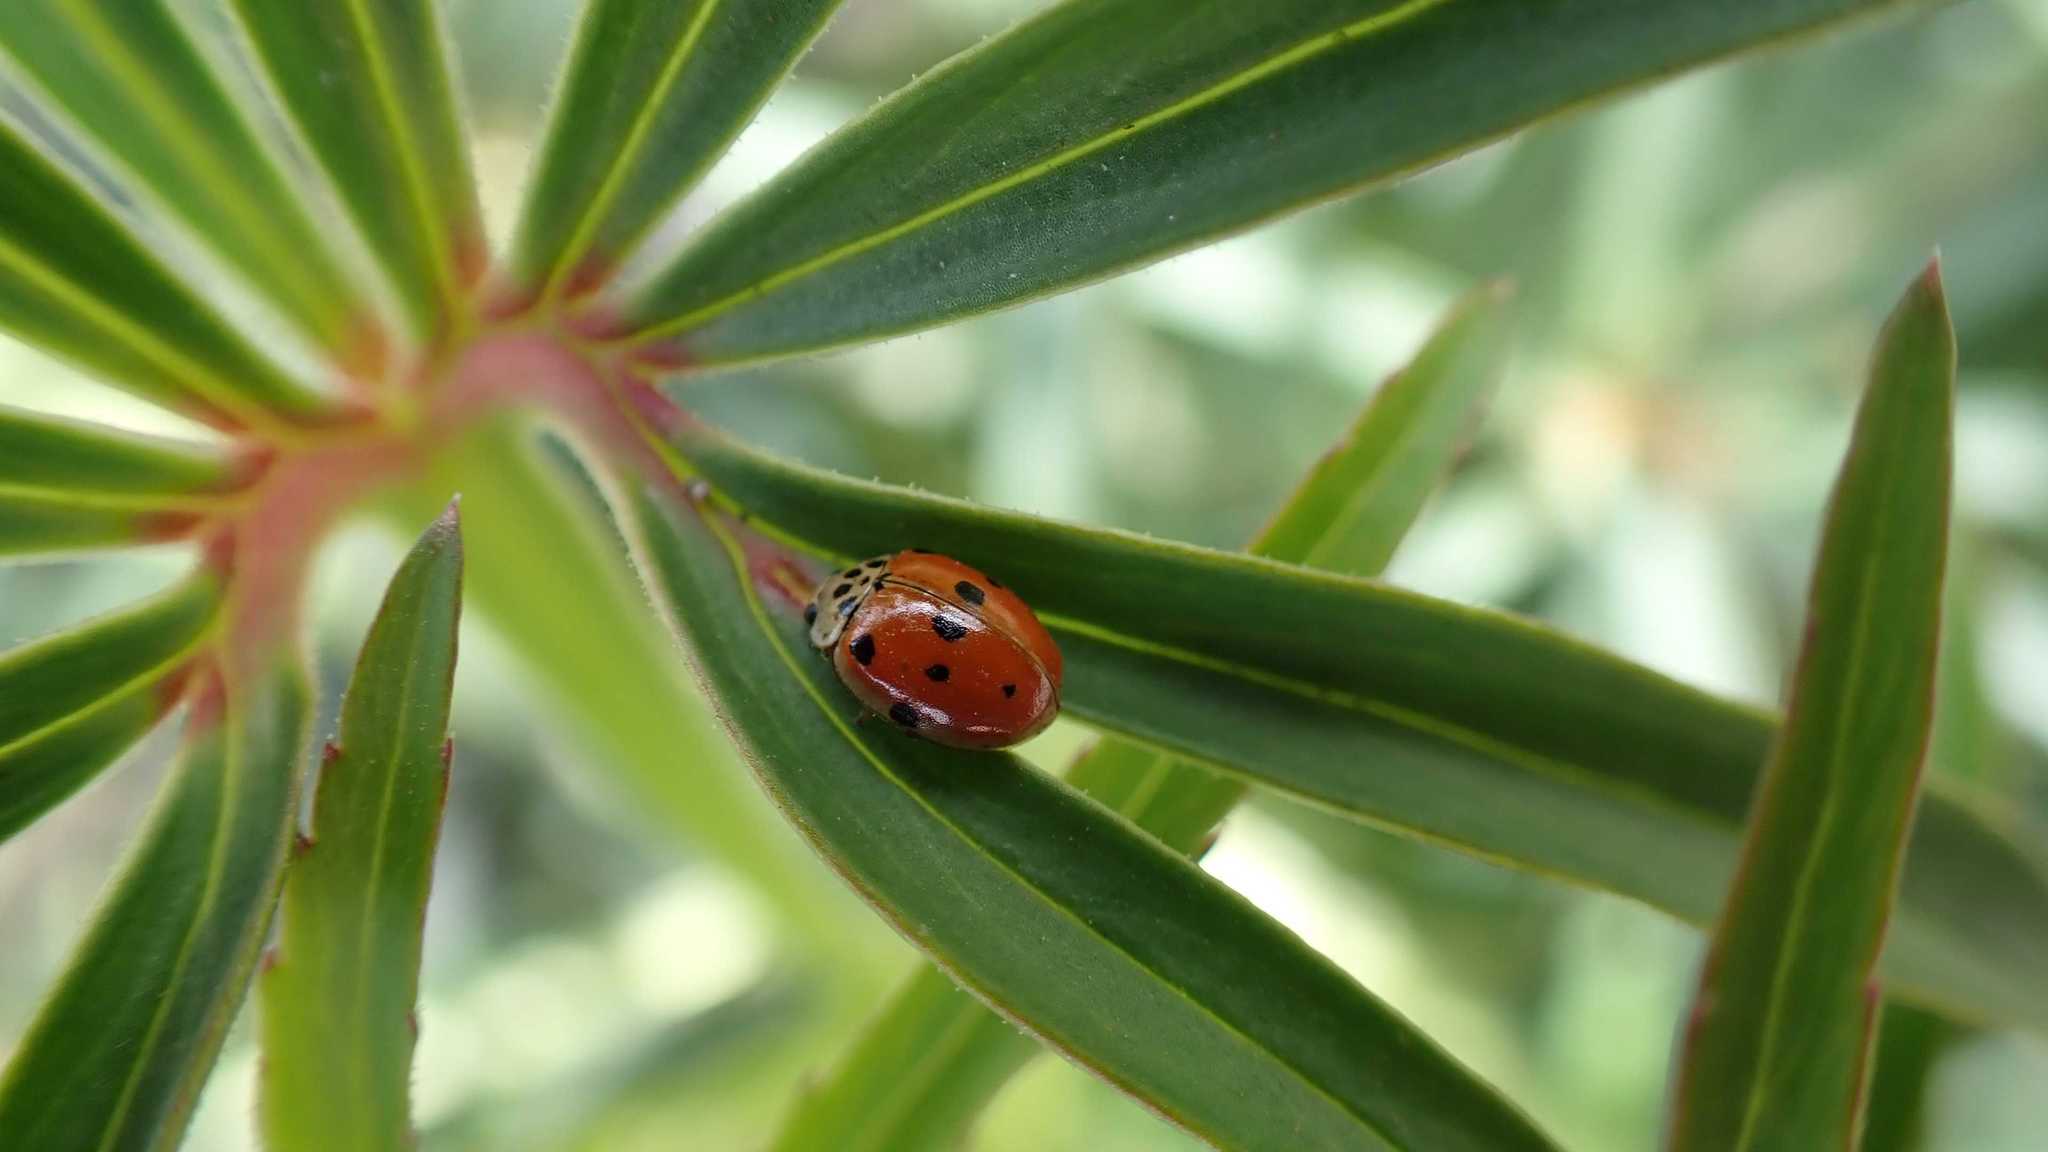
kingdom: Animalia
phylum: Arthropoda
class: Insecta
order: Coleoptera
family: Coccinellidae
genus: Adalia
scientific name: Adalia decempunctata
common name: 10-spot ladybird
